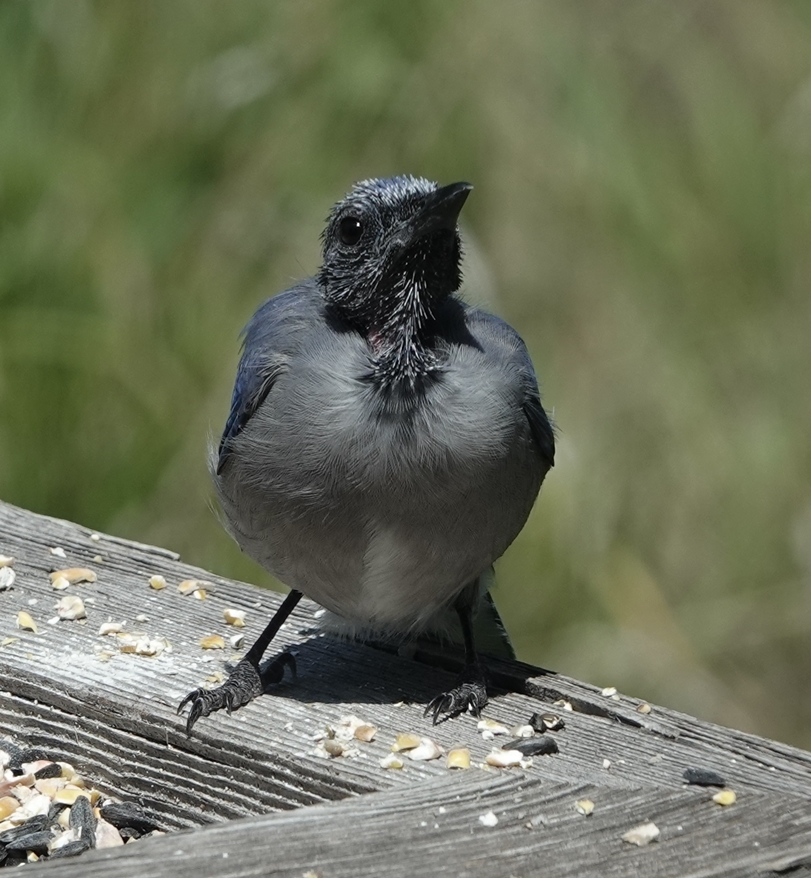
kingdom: Animalia
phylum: Chordata
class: Aves
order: Passeriformes
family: Corvidae
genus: Cyanocitta
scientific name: Cyanocitta cristata
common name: Blue jay
